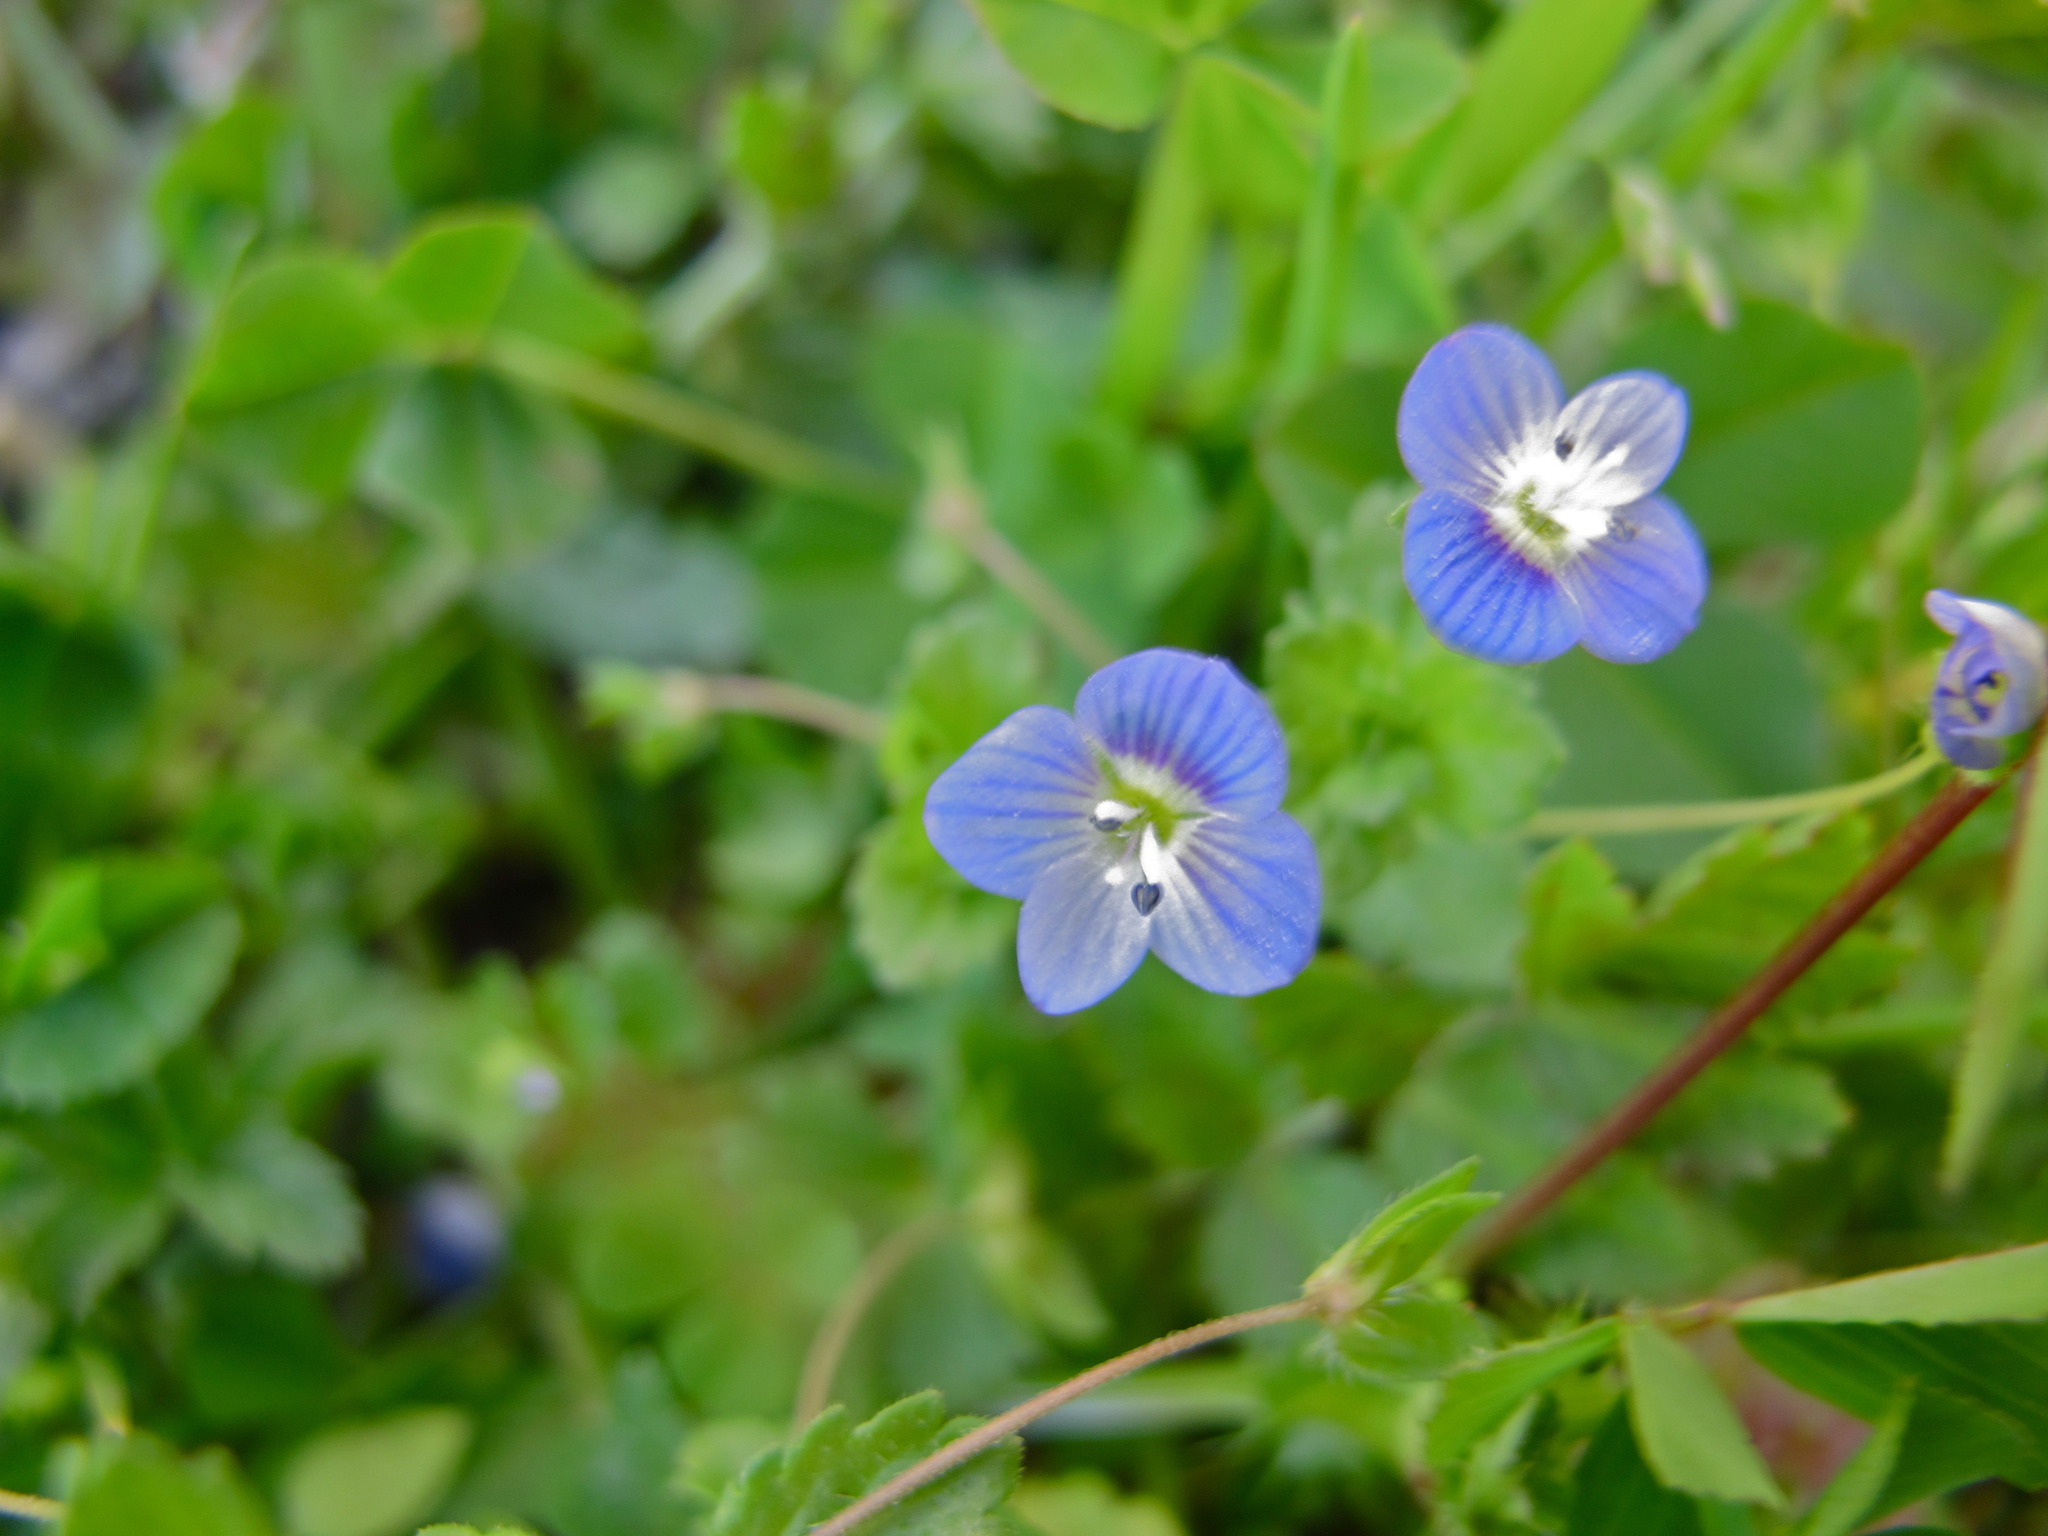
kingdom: Plantae
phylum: Tracheophyta
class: Magnoliopsida
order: Lamiales
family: Plantaginaceae
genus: Veronica
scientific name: Veronica persica
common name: Common field-speedwell
